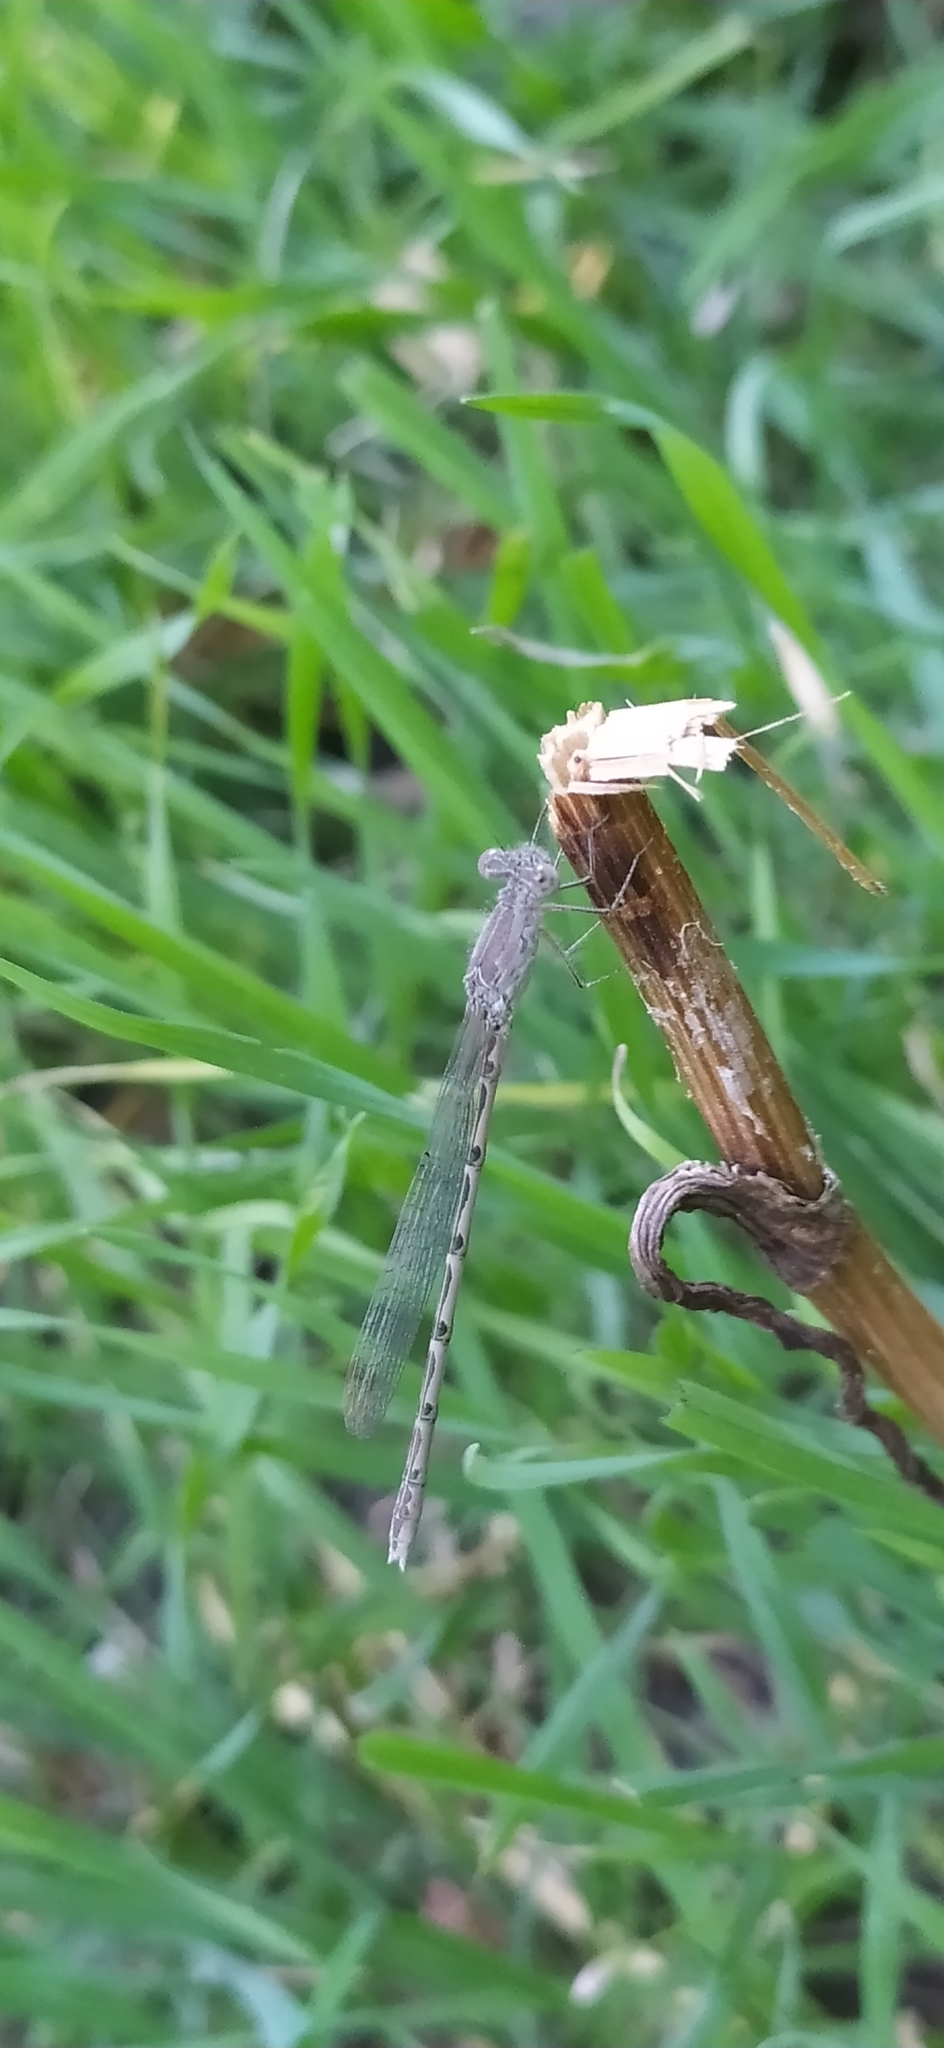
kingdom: Animalia
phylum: Arthropoda
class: Insecta
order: Odonata
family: Lestidae
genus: Sympecma
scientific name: Sympecma gobica
